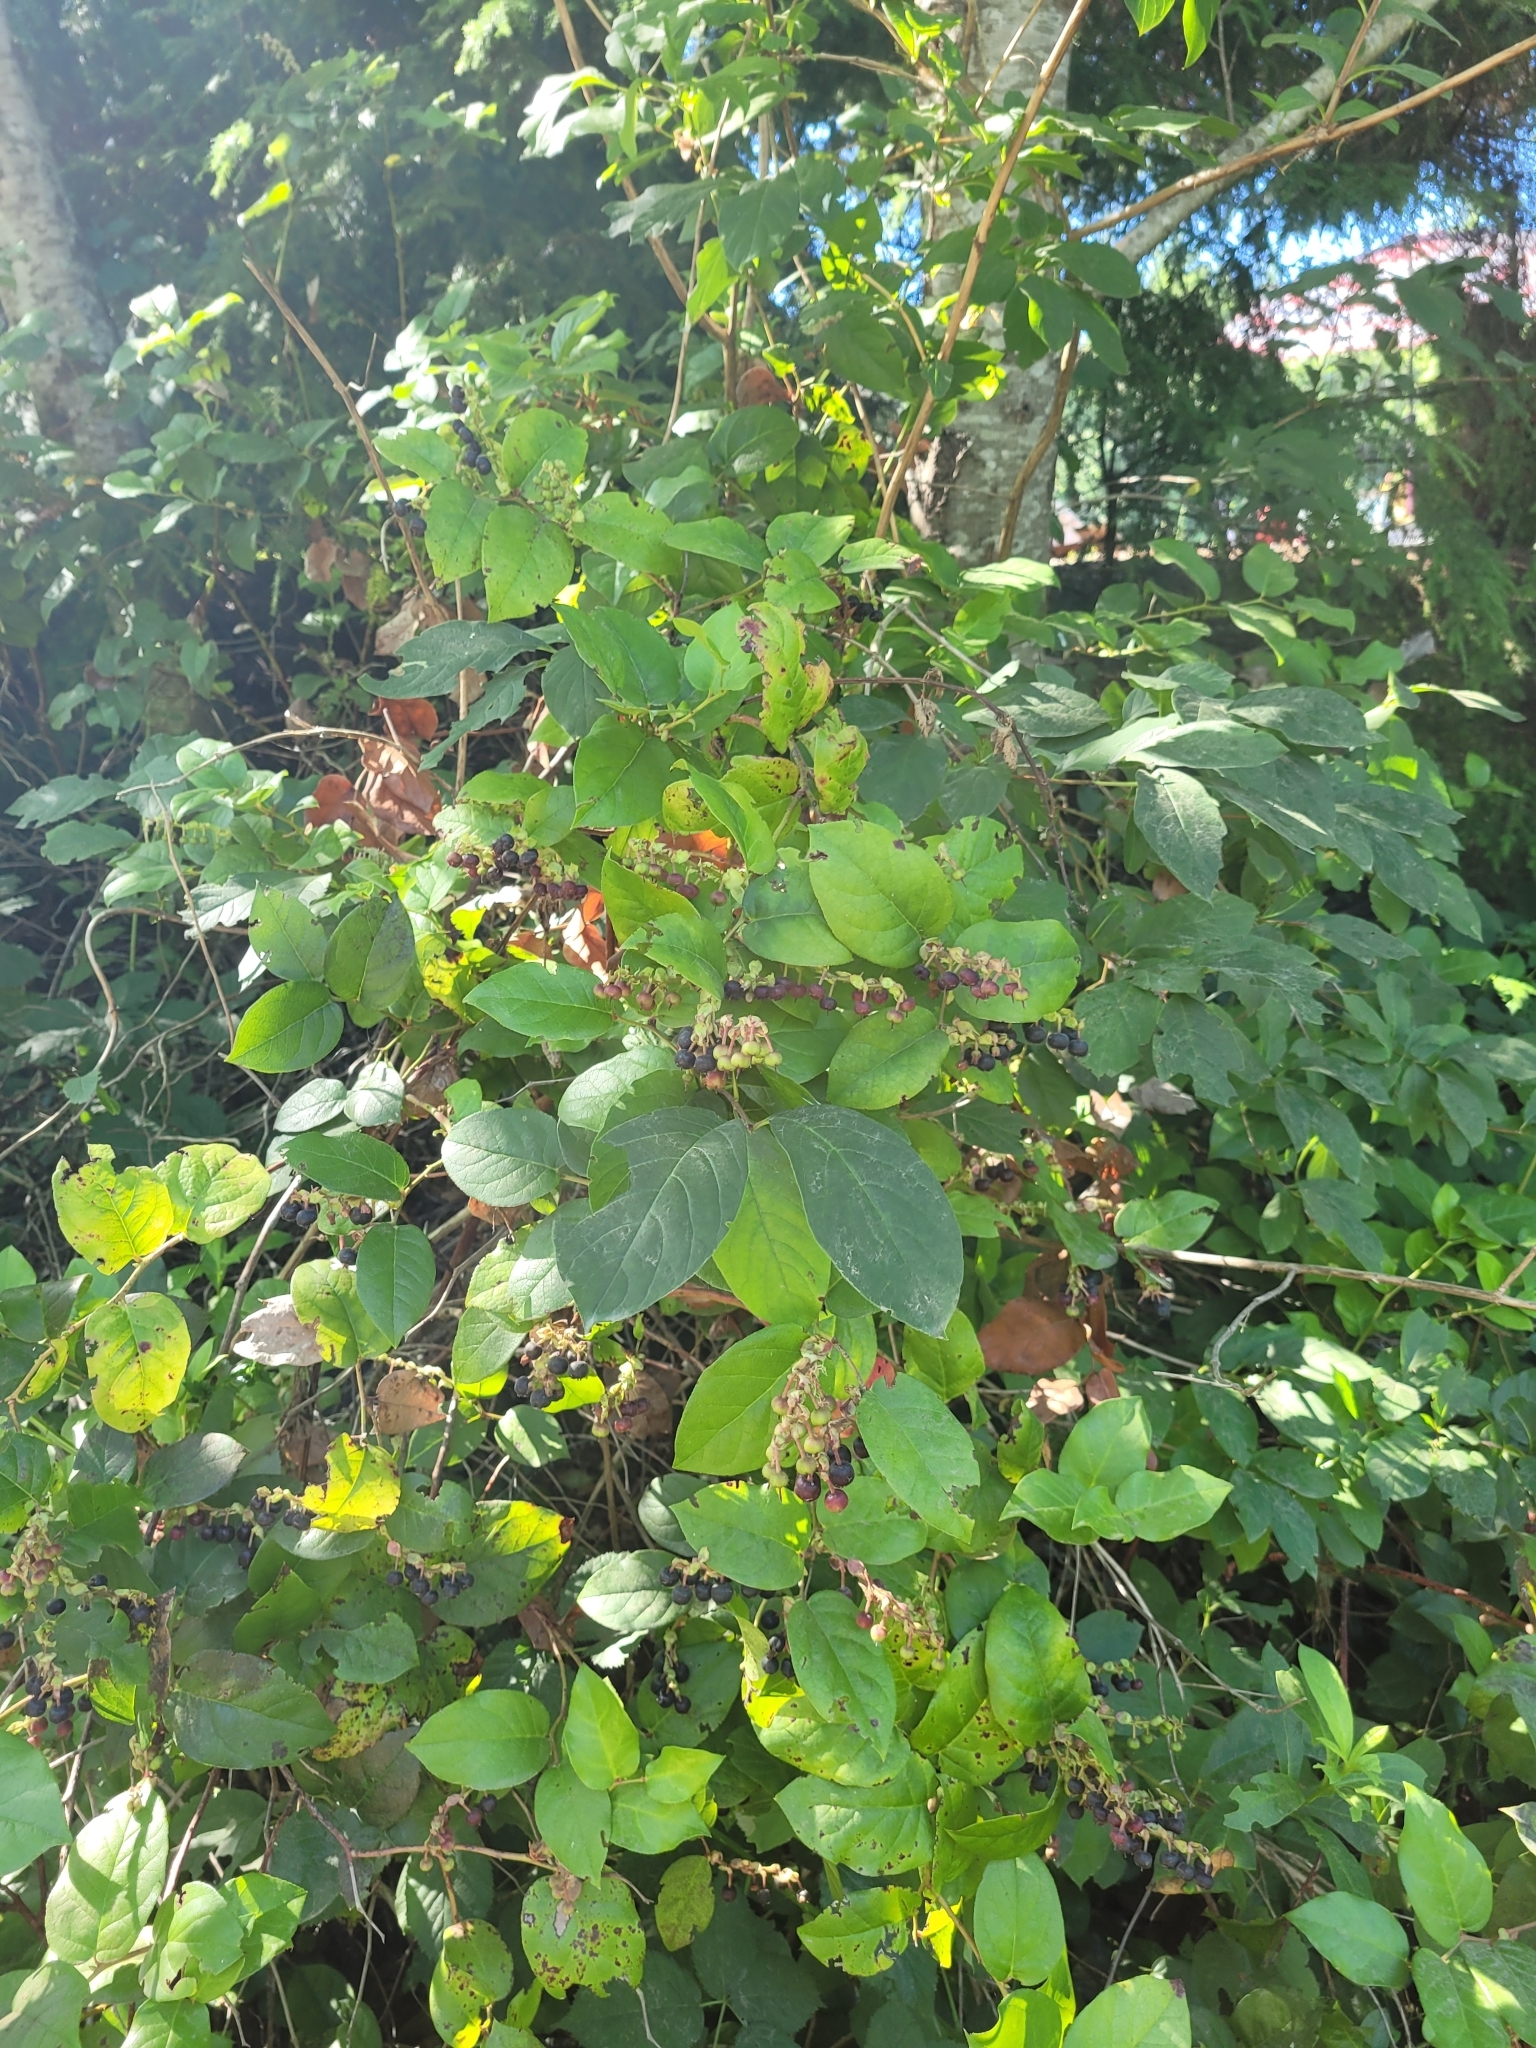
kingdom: Plantae
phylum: Tracheophyta
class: Magnoliopsida
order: Ericales
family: Ericaceae
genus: Gaultheria
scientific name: Gaultheria shallon
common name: Shallon
